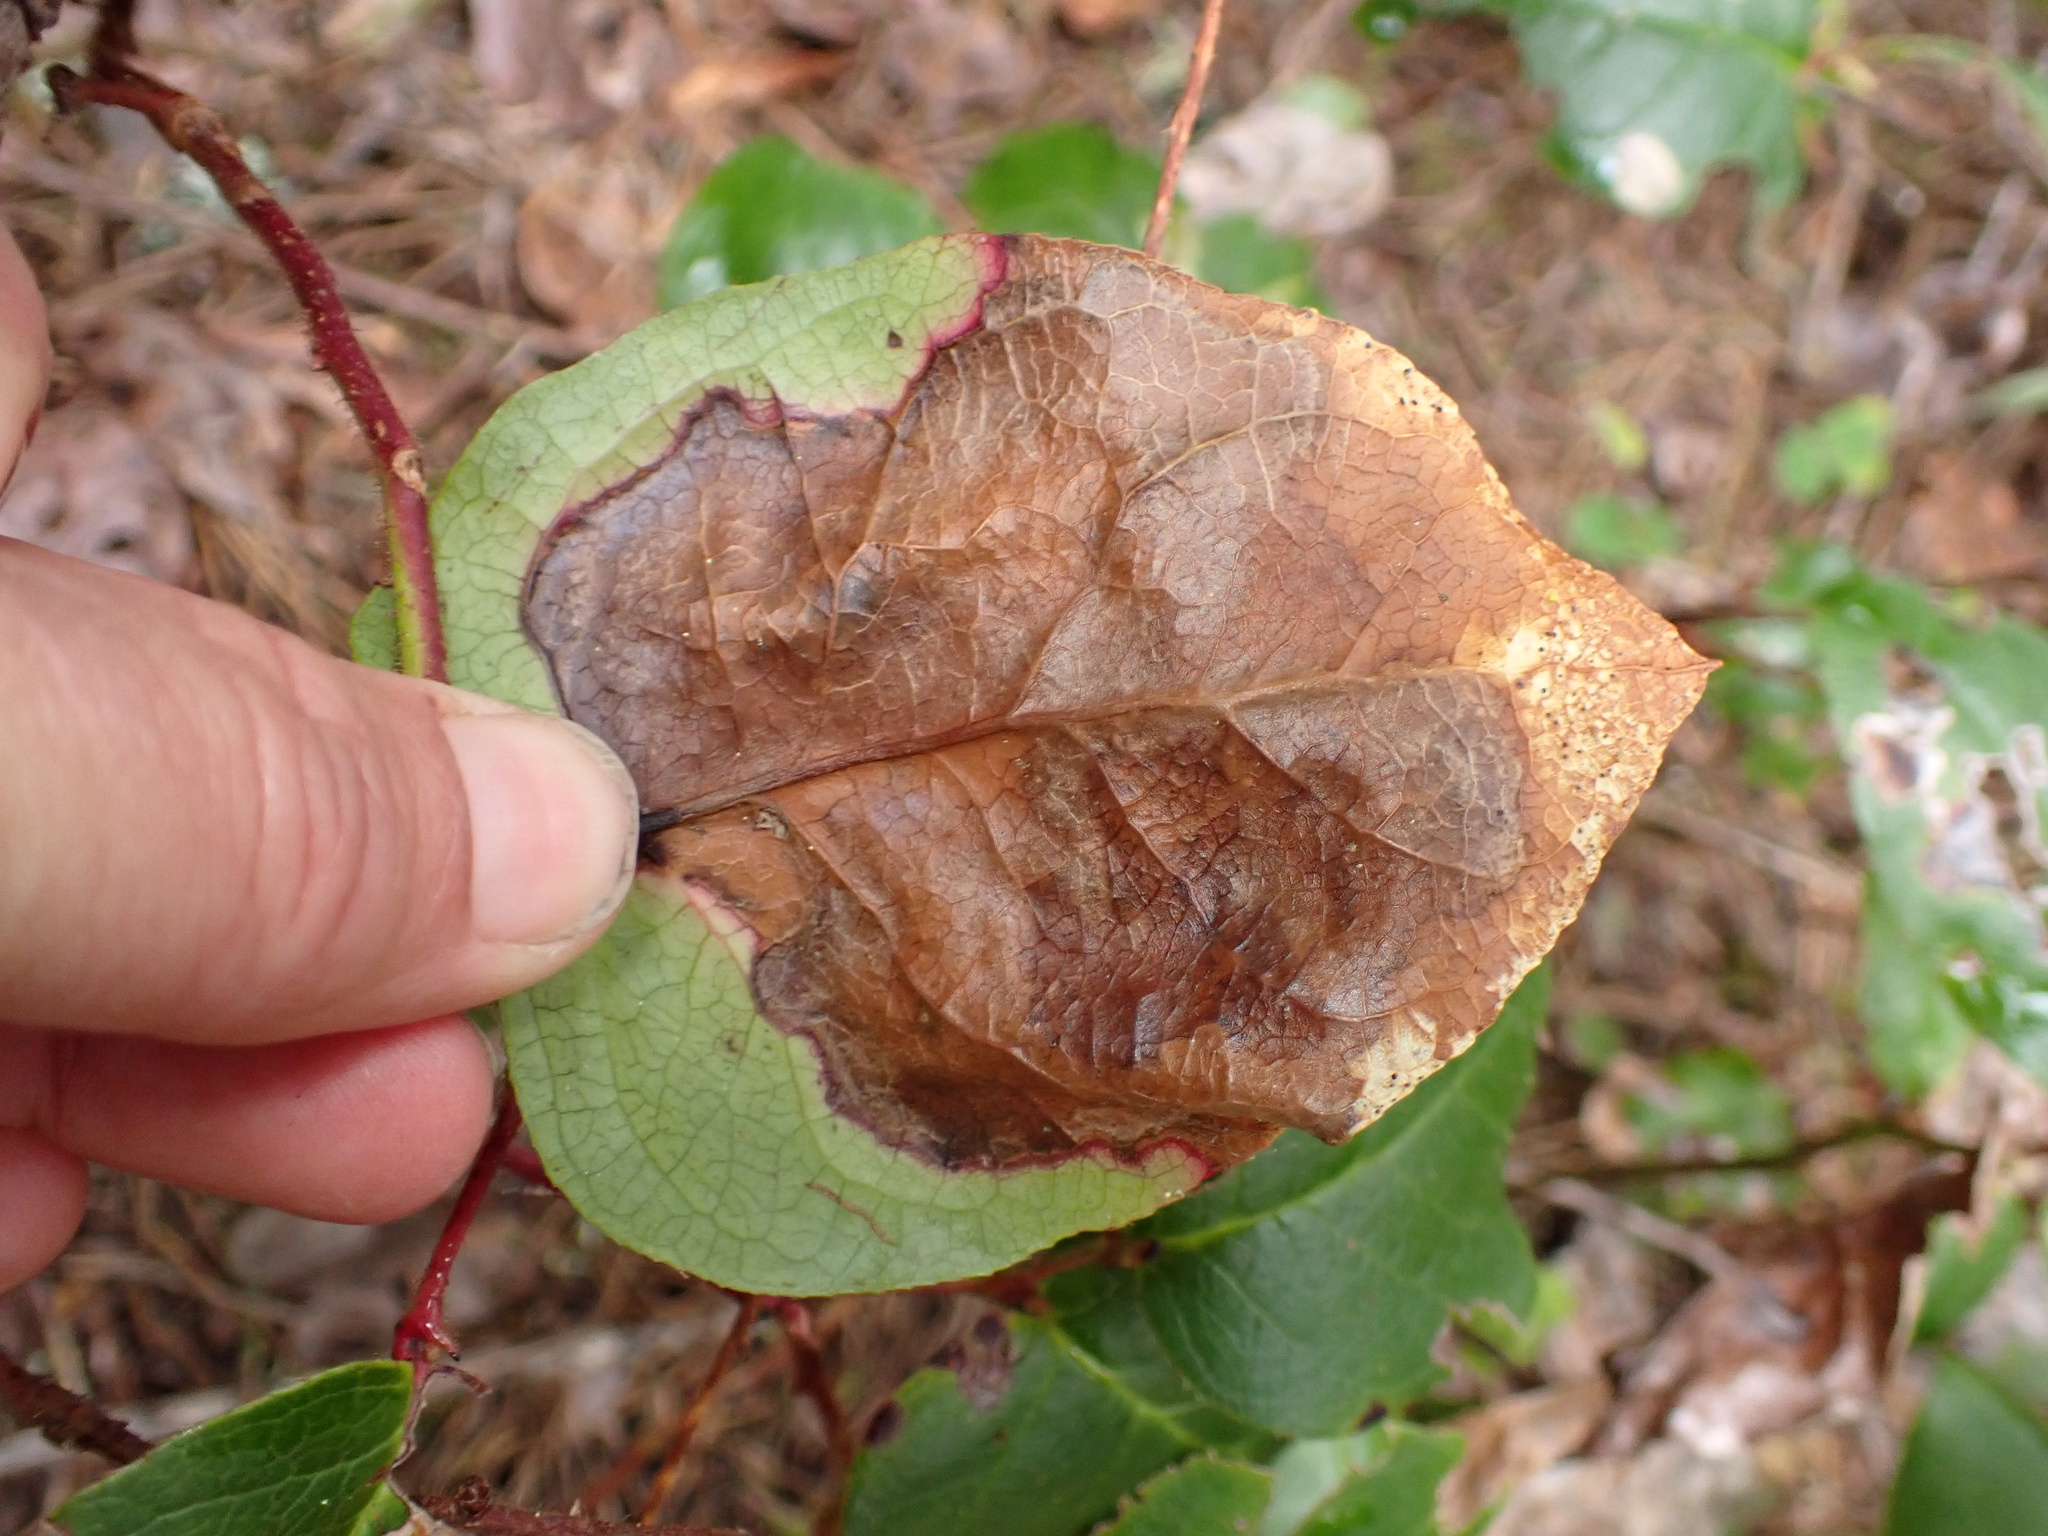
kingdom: Animalia
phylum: Arthropoda
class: Insecta
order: Lepidoptera
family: Gracillariidae
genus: Cameraria
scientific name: Cameraria gaultheriella
